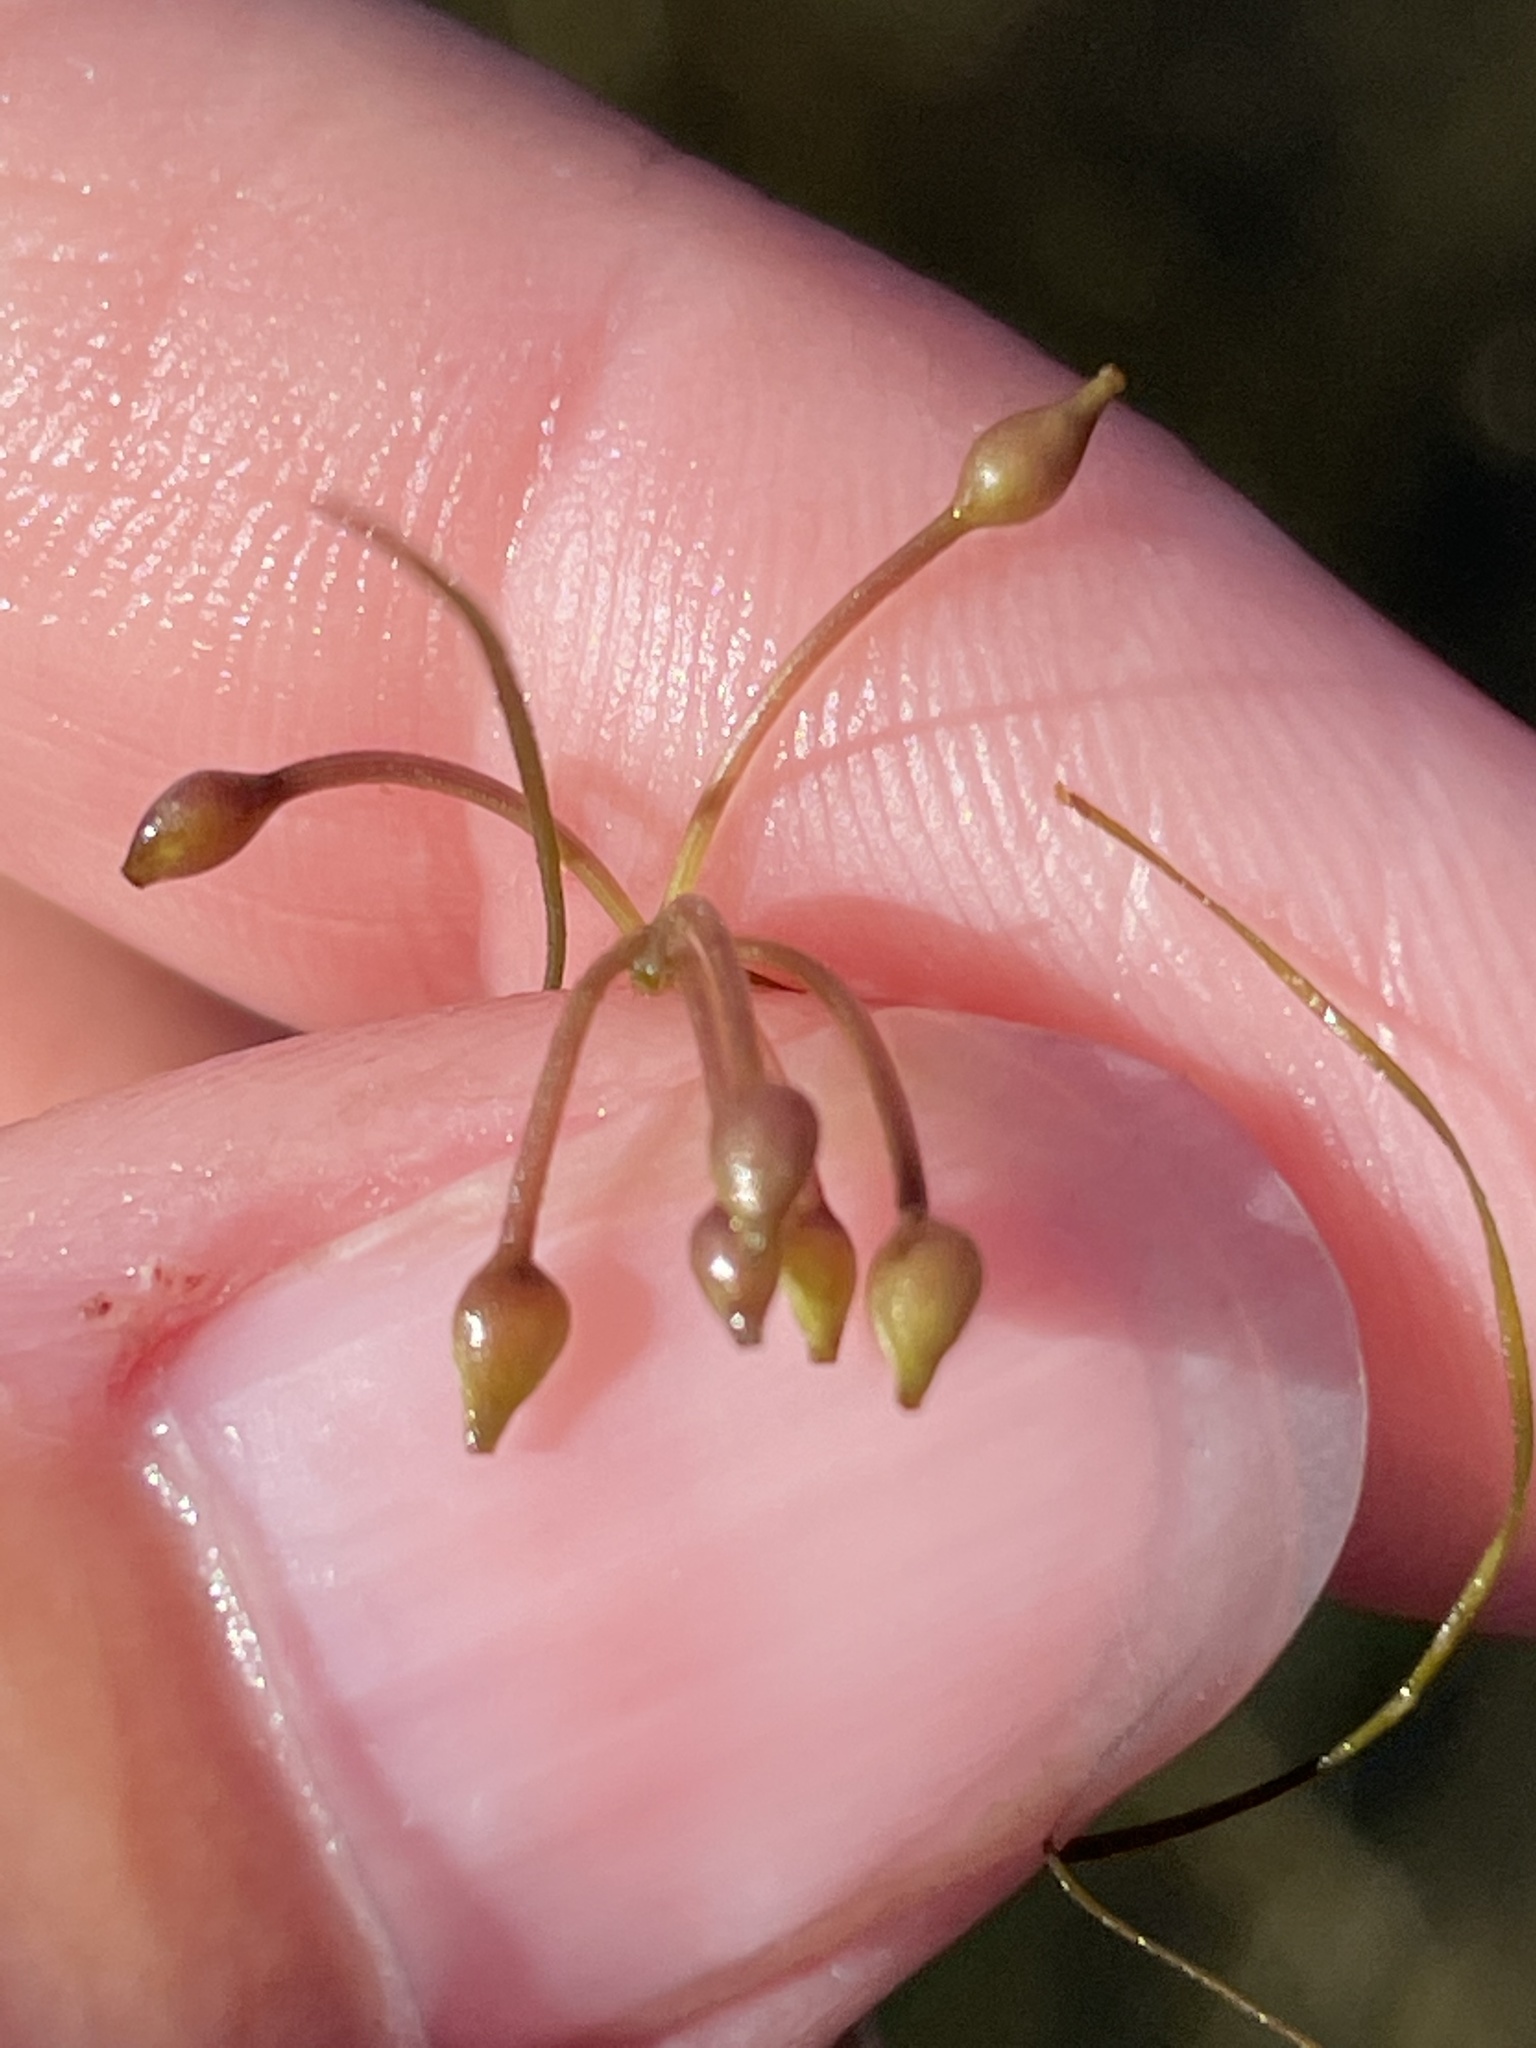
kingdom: Plantae
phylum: Tracheophyta
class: Liliopsida
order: Alismatales
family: Ruppiaceae
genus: Ruppia
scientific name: Ruppia maritima
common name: Beaked tasselweed
